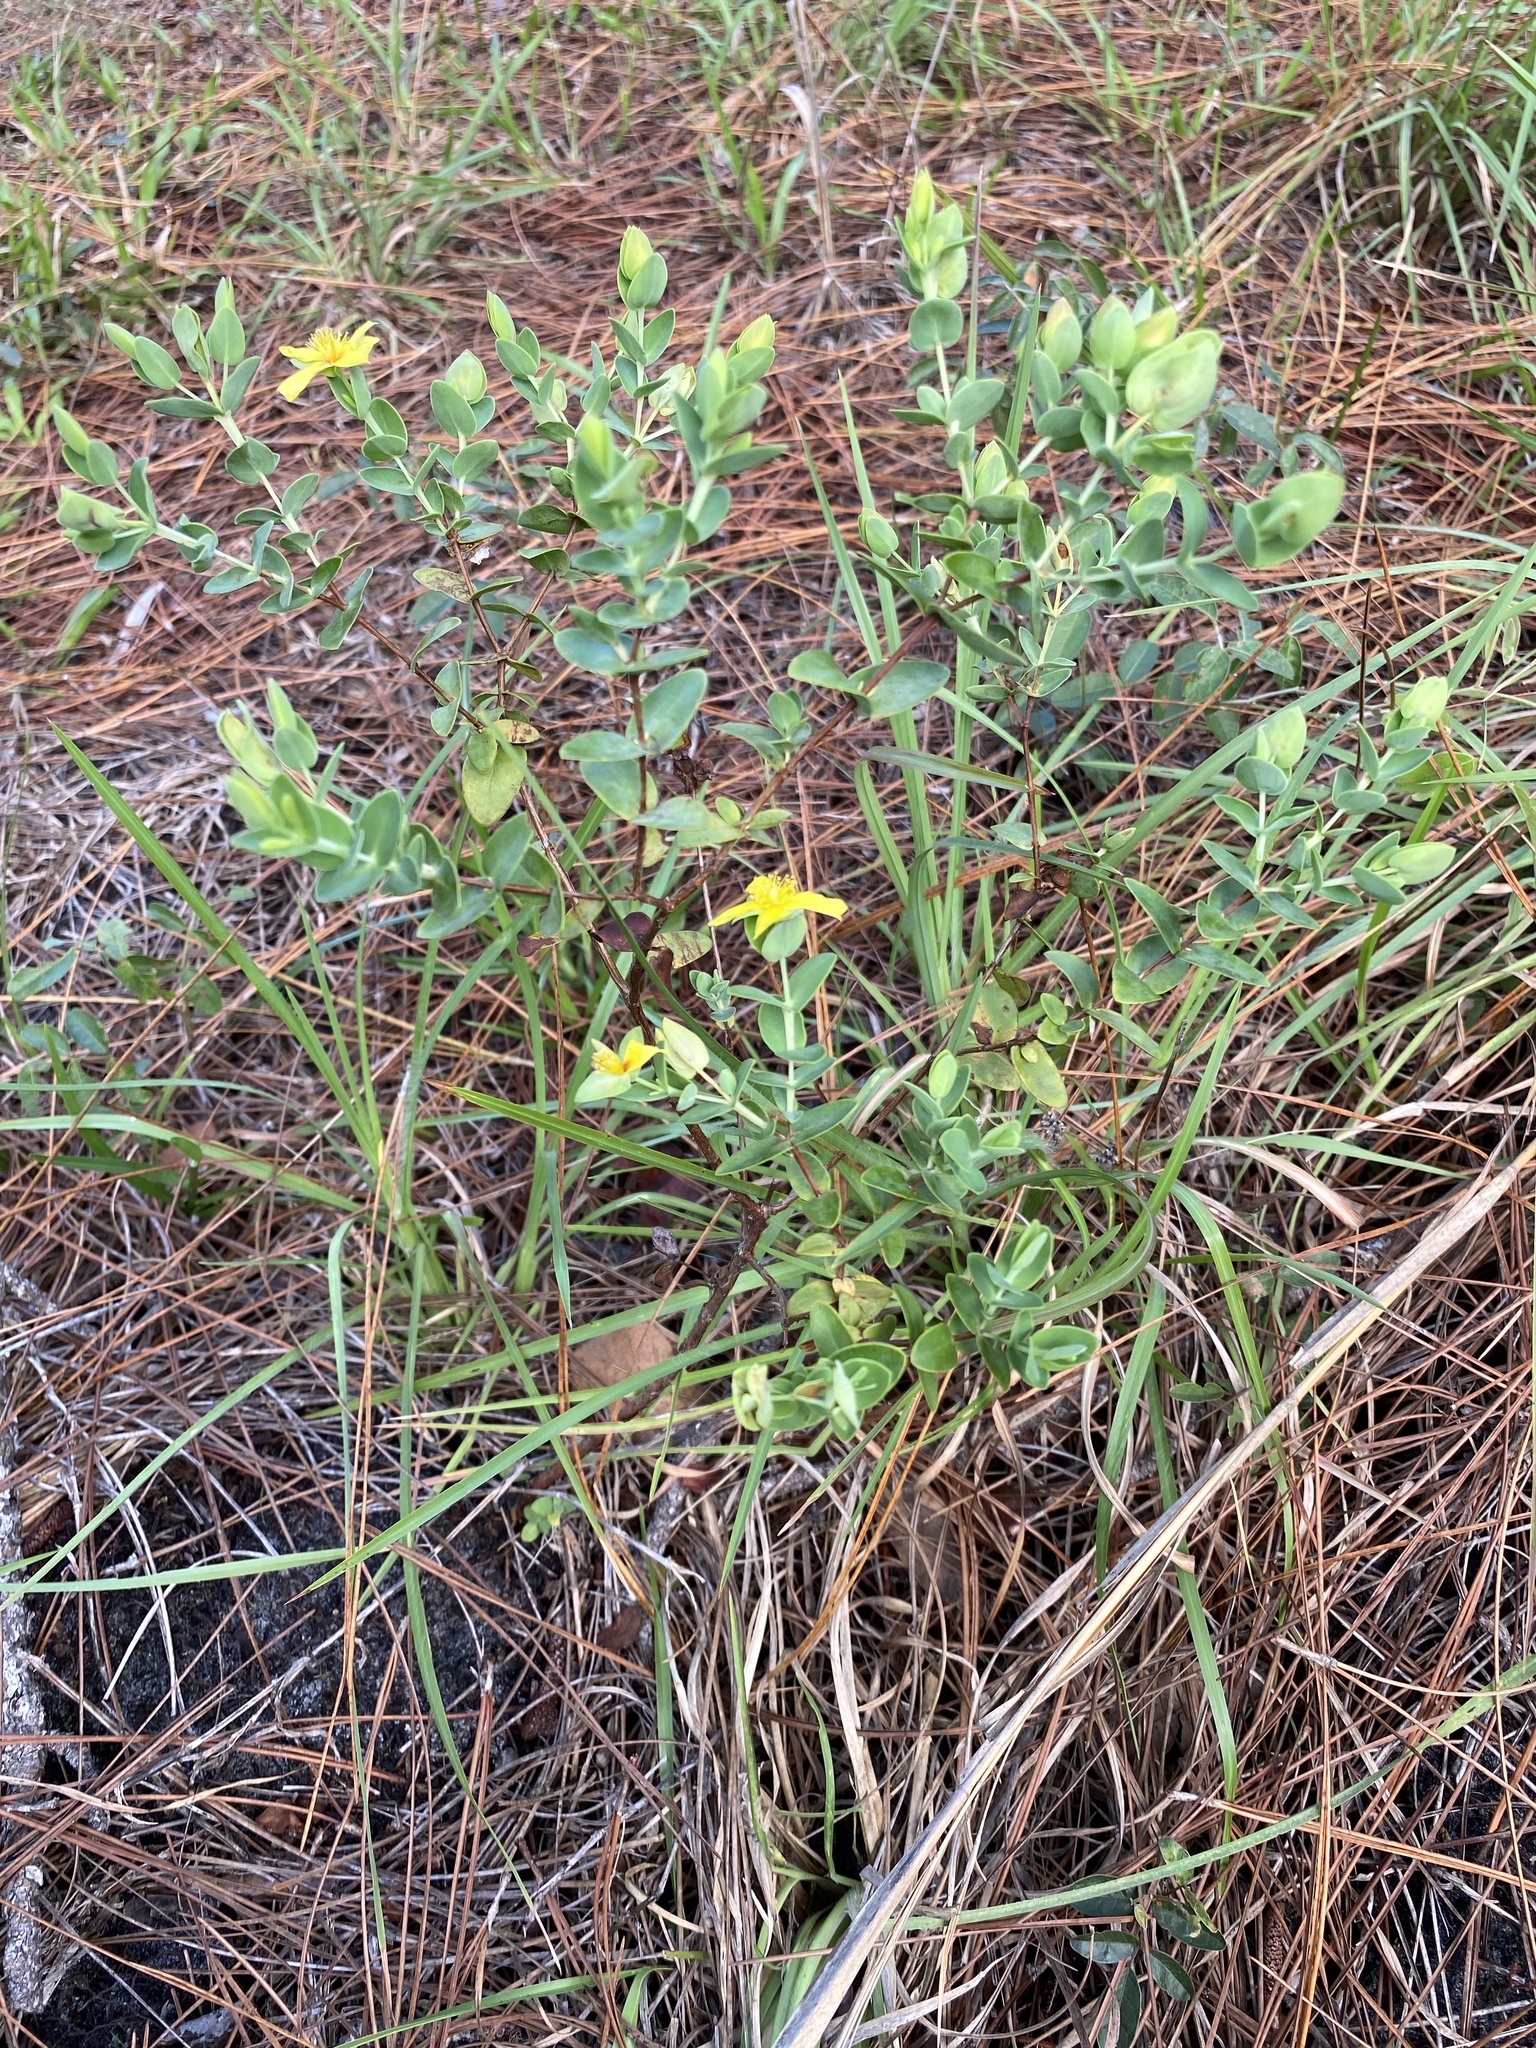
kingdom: Plantae
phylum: Tracheophyta
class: Magnoliopsida
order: Malpighiales
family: Hypericaceae
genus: Hypericum
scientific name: Hypericum tetrapetalum
